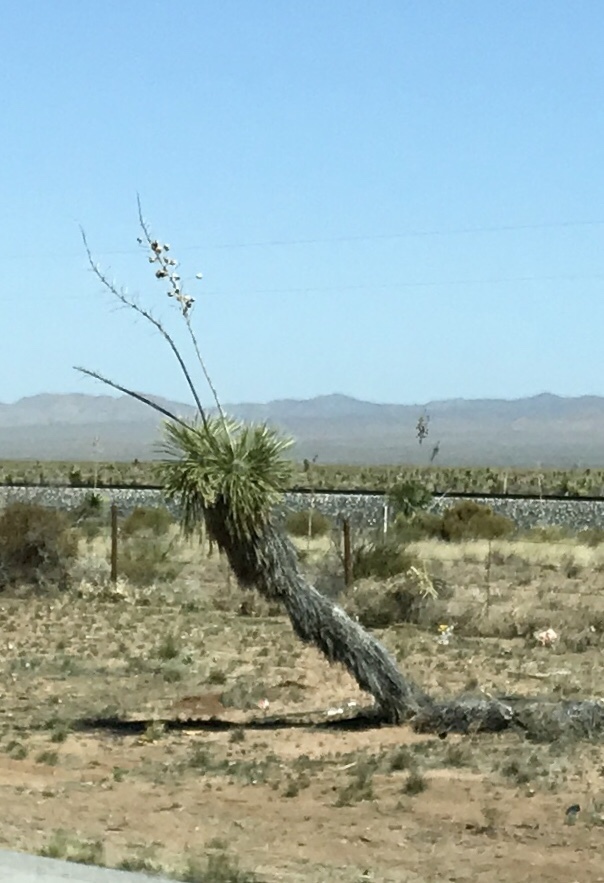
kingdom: Plantae
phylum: Tracheophyta
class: Liliopsida
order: Asparagales
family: Asparagaceae
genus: Yucca
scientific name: Yucca elata
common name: Palmella
